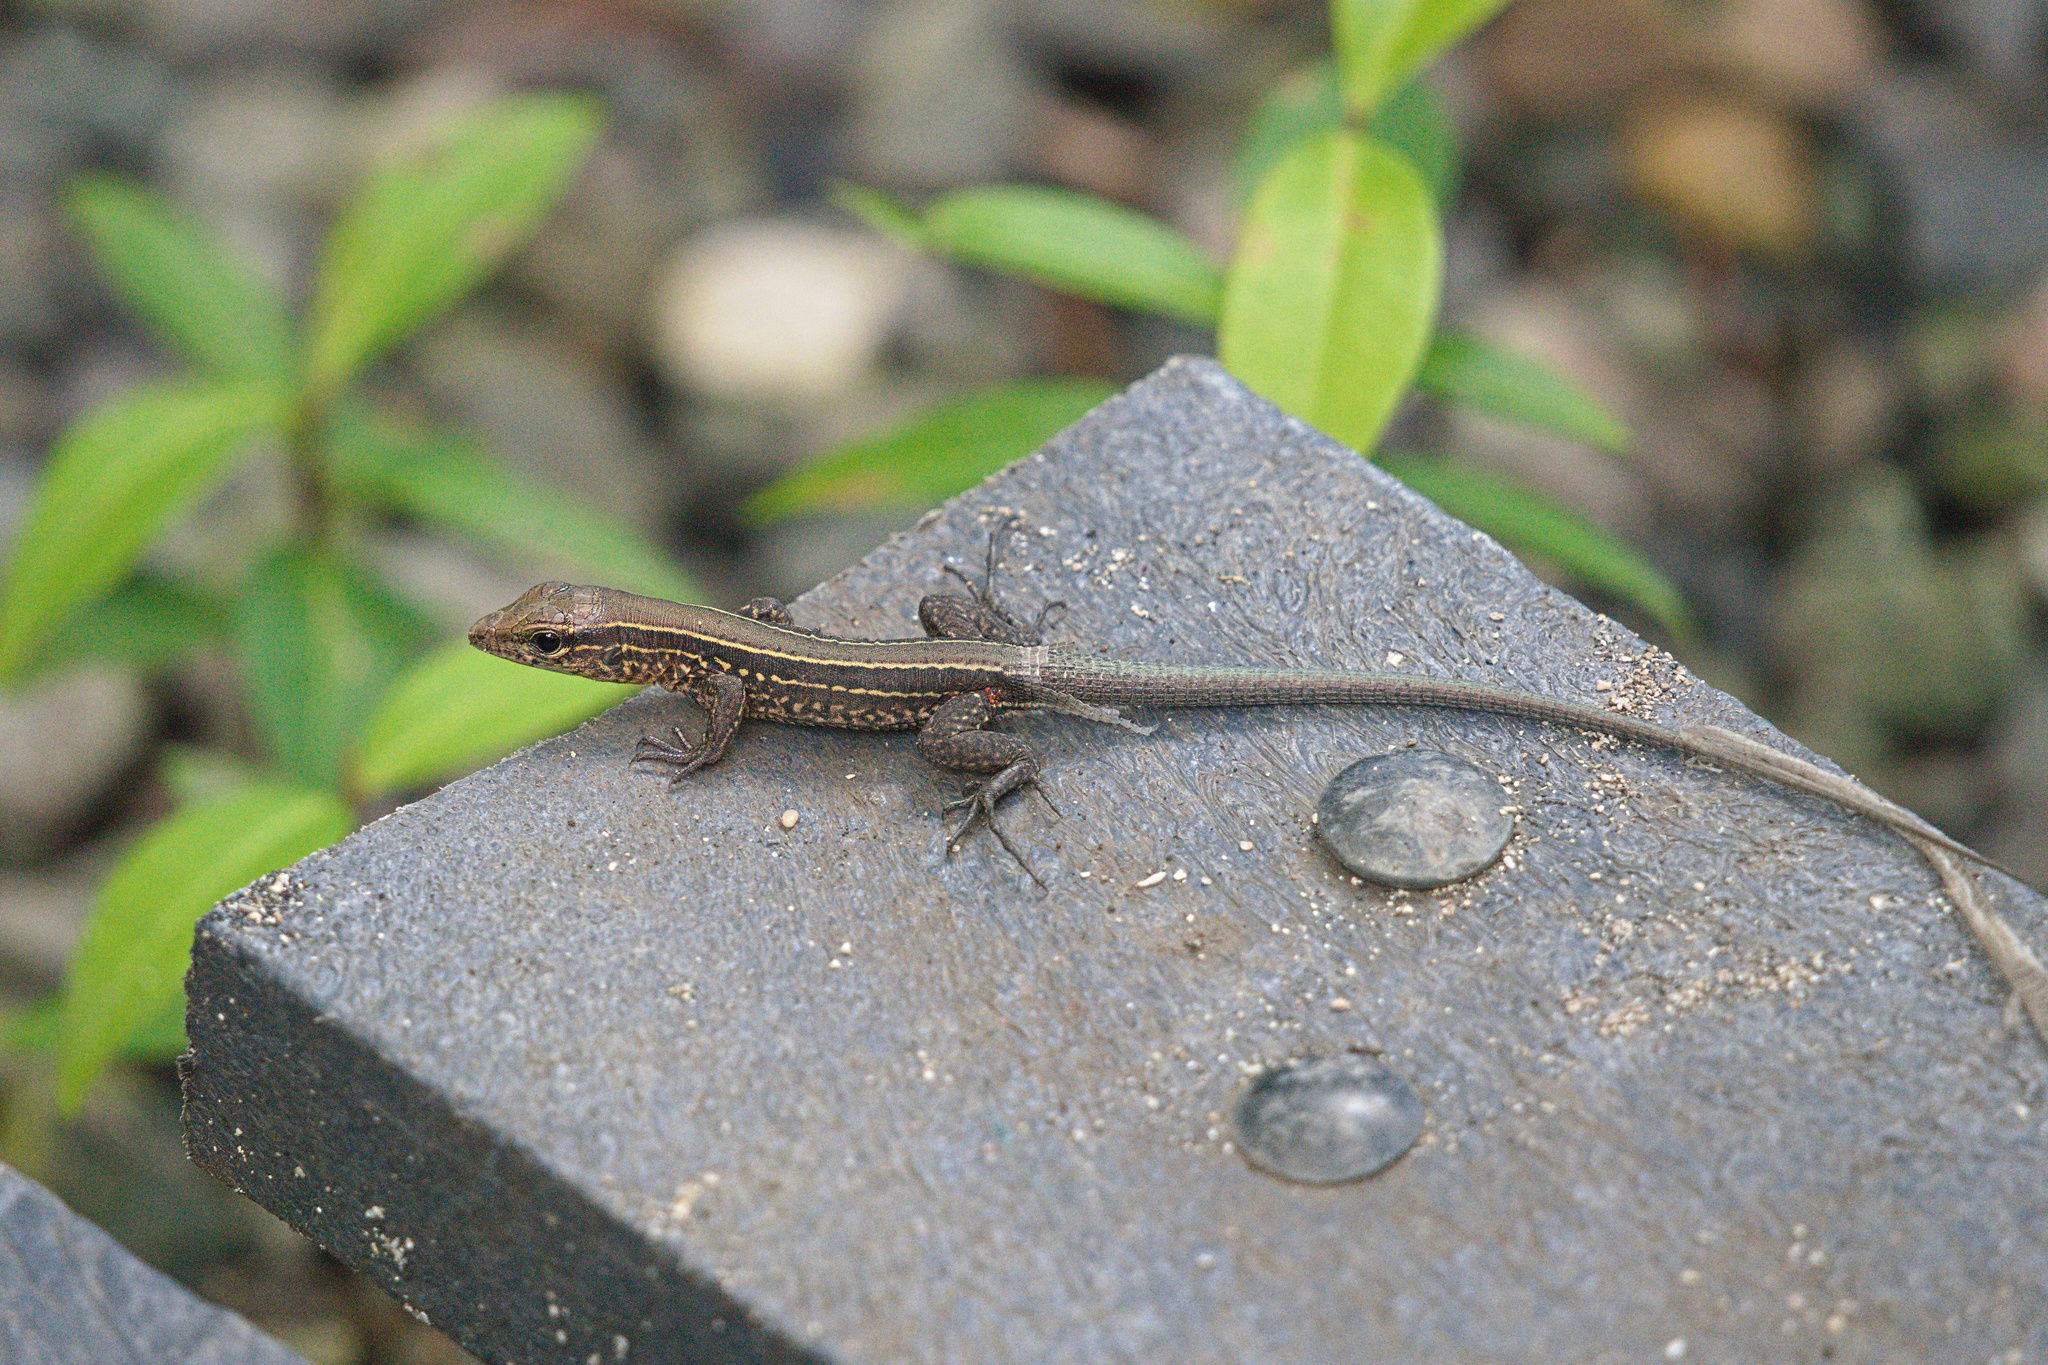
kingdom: Animalia
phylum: Chordata
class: Squamata
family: Teiidae
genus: Holcosus
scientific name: Holcosus quadrilineatus
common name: Four-lined ameiva
